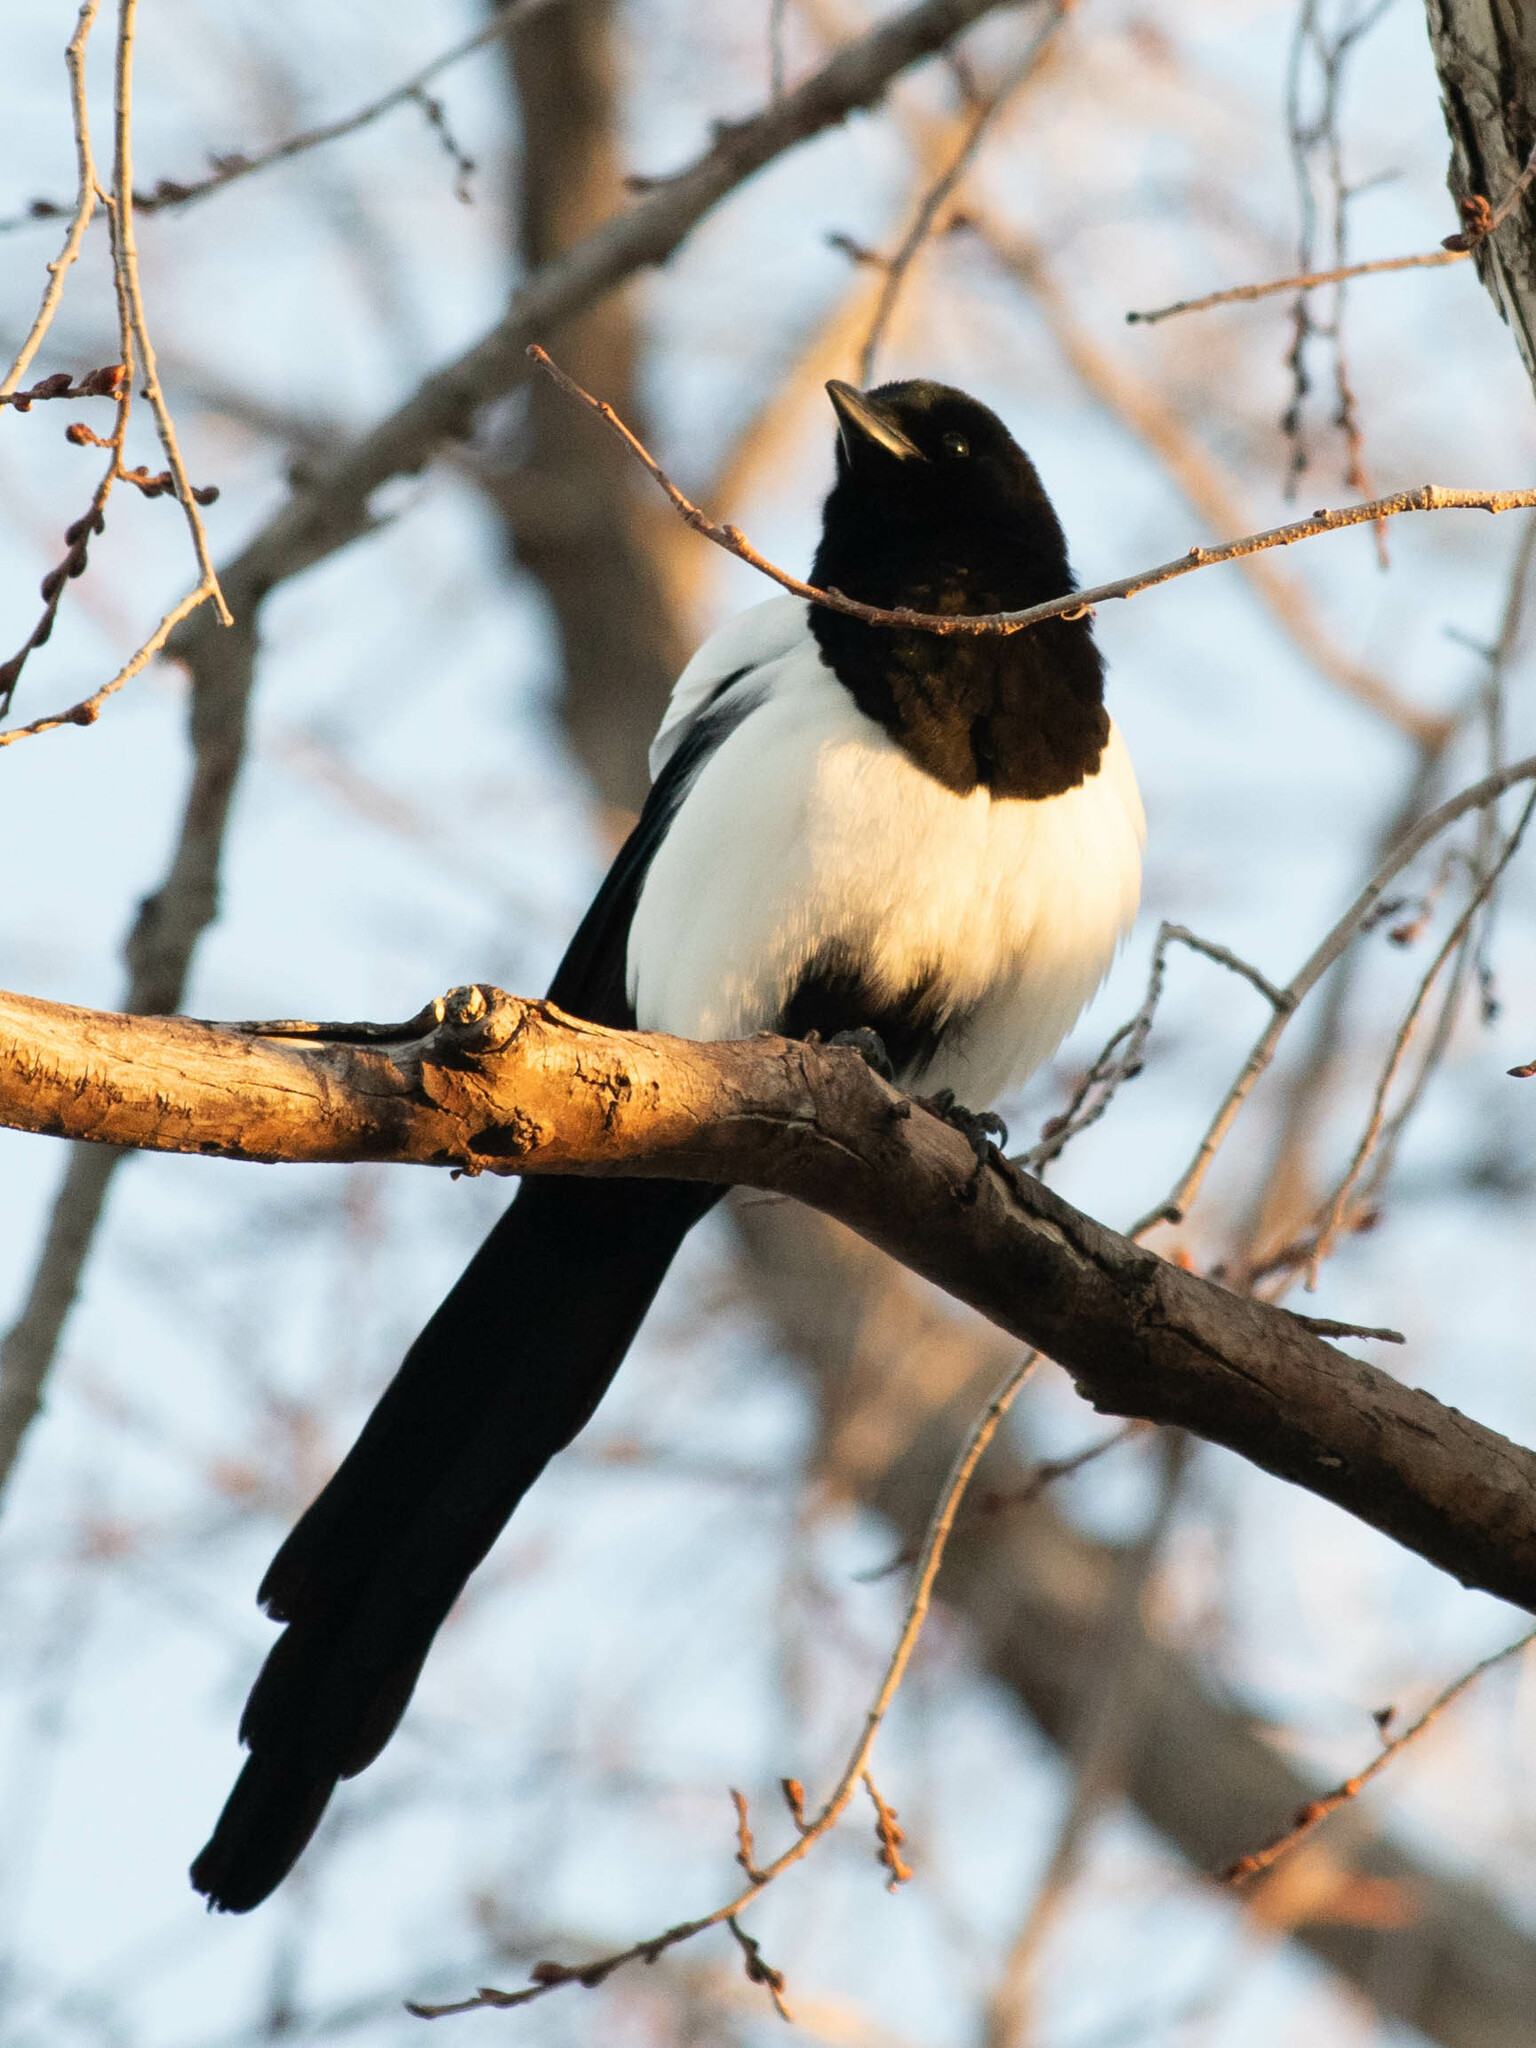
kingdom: Animalia
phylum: Chordata
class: Aves
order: Passeriformes
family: Corvidae
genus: Pica
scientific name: Pica hudsonia
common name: Black-billed magpie
